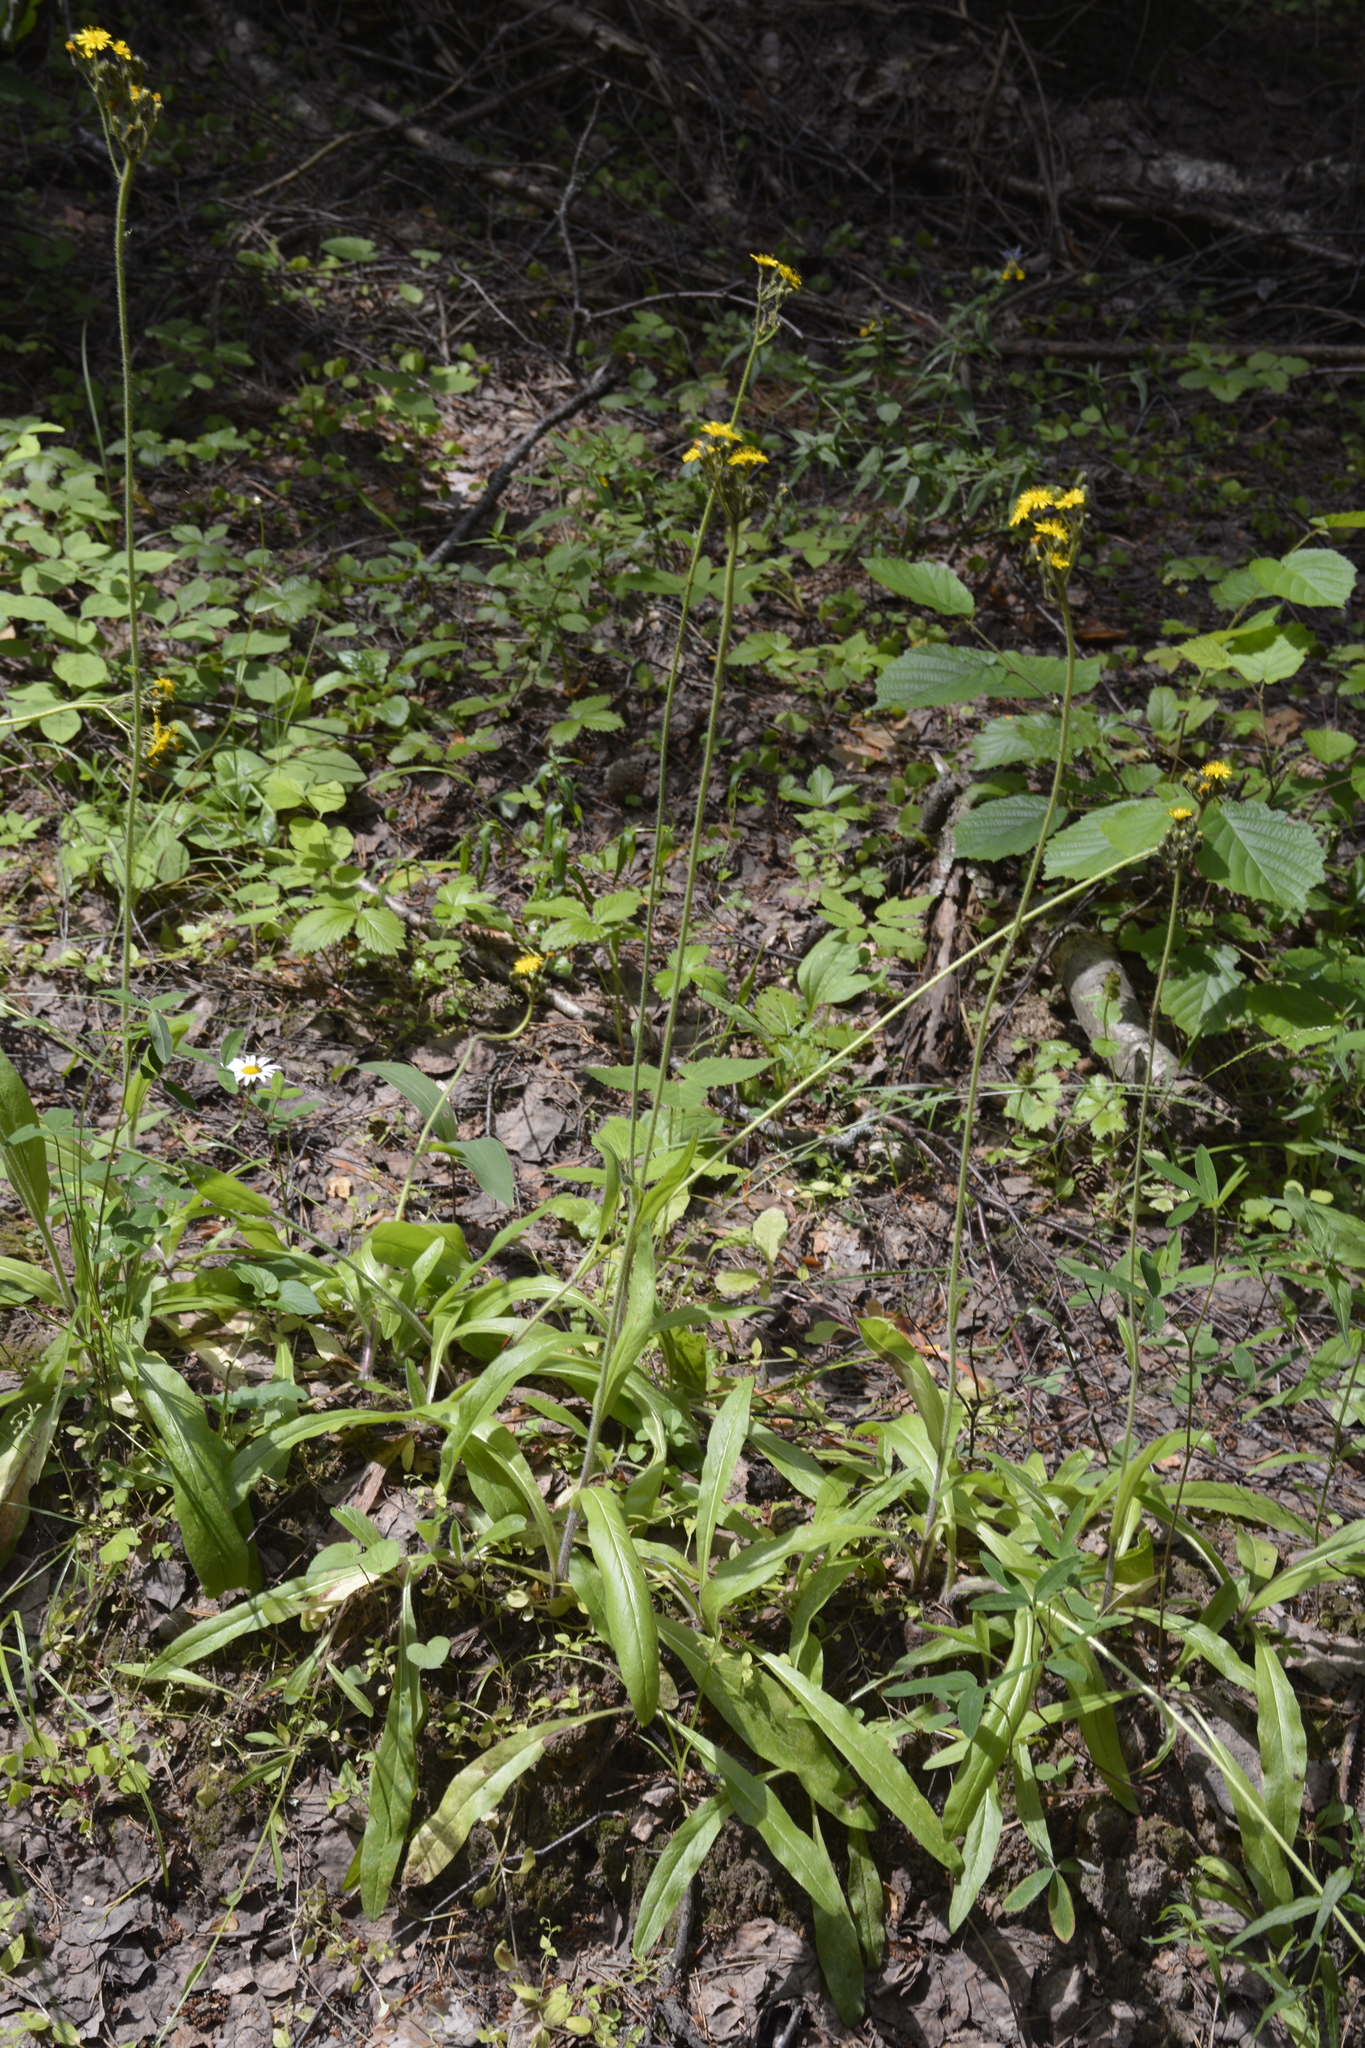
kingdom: Plantae
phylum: Tracheophyta
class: Magnoliopsida
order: Asterales
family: Asteraceae
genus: Pilosella
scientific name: Pilosella onegensis
